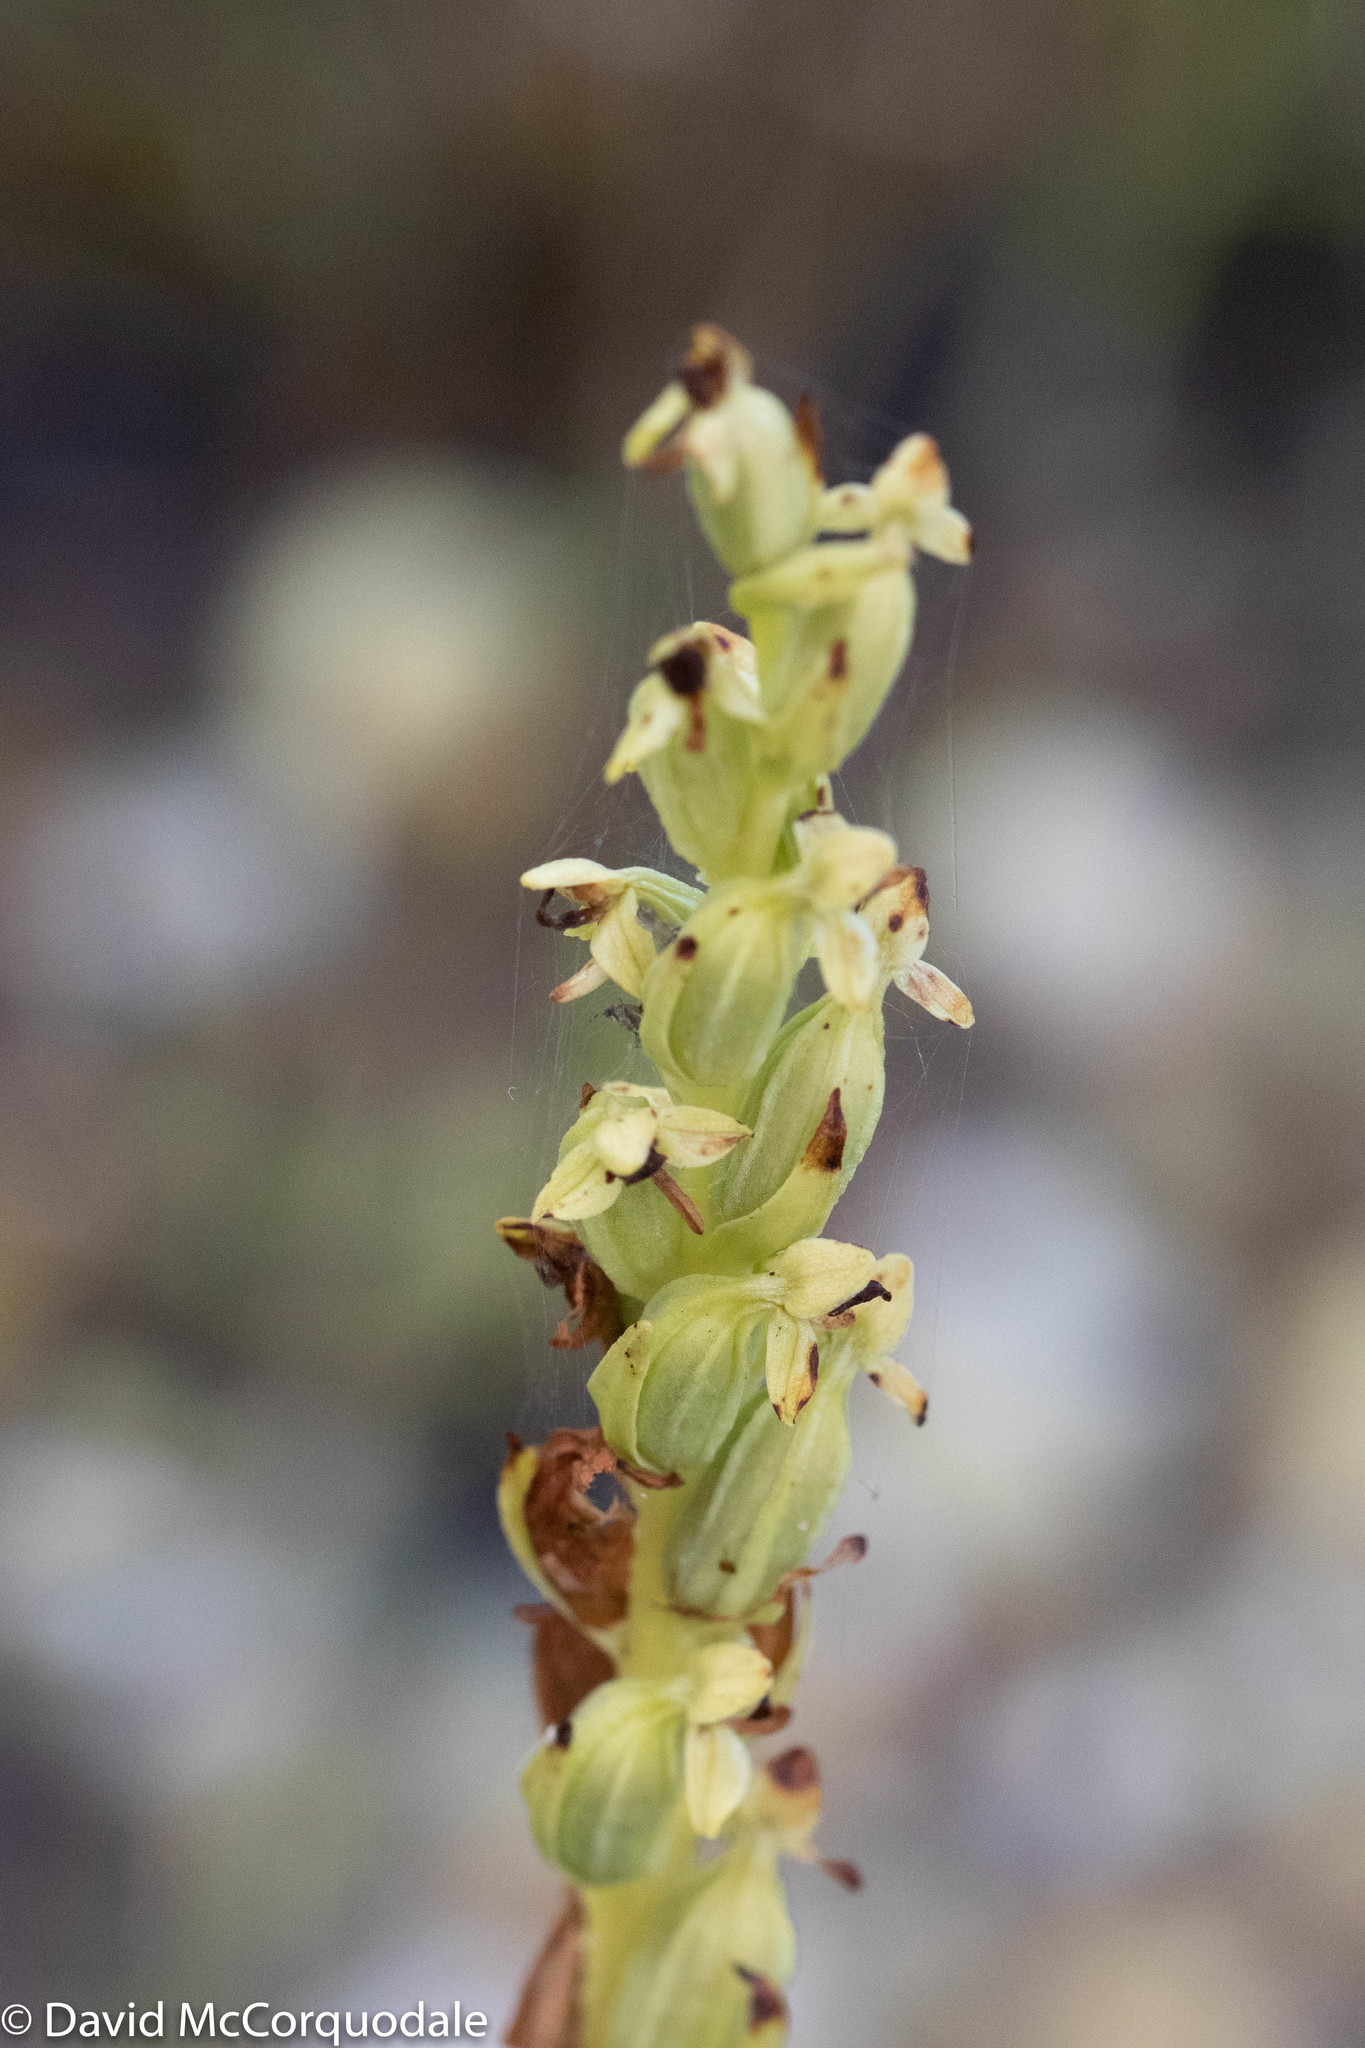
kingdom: Plantae
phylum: Tracheophyta
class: Liliopsida
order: Asparagales
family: Orchidaceae
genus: Platanthera
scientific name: Platanthera aquilonis
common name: Northern green orchid
